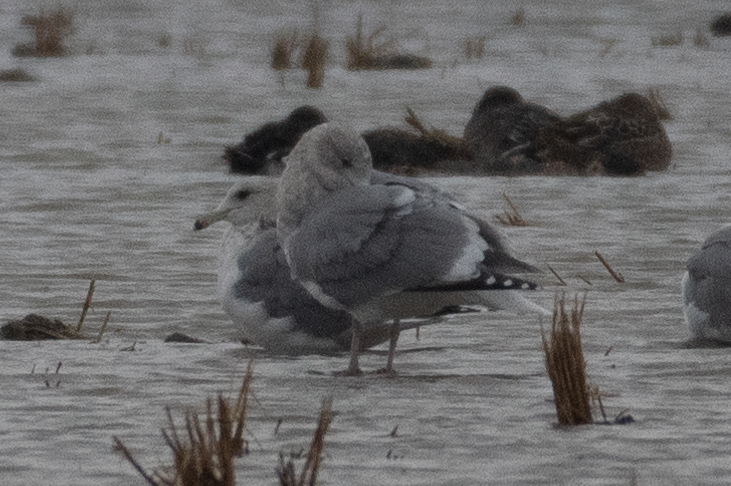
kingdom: Animalia
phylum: Chordata
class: Aves
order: Charadriiformes
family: Laridae
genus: Larus
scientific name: Larus californicus
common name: California gull
